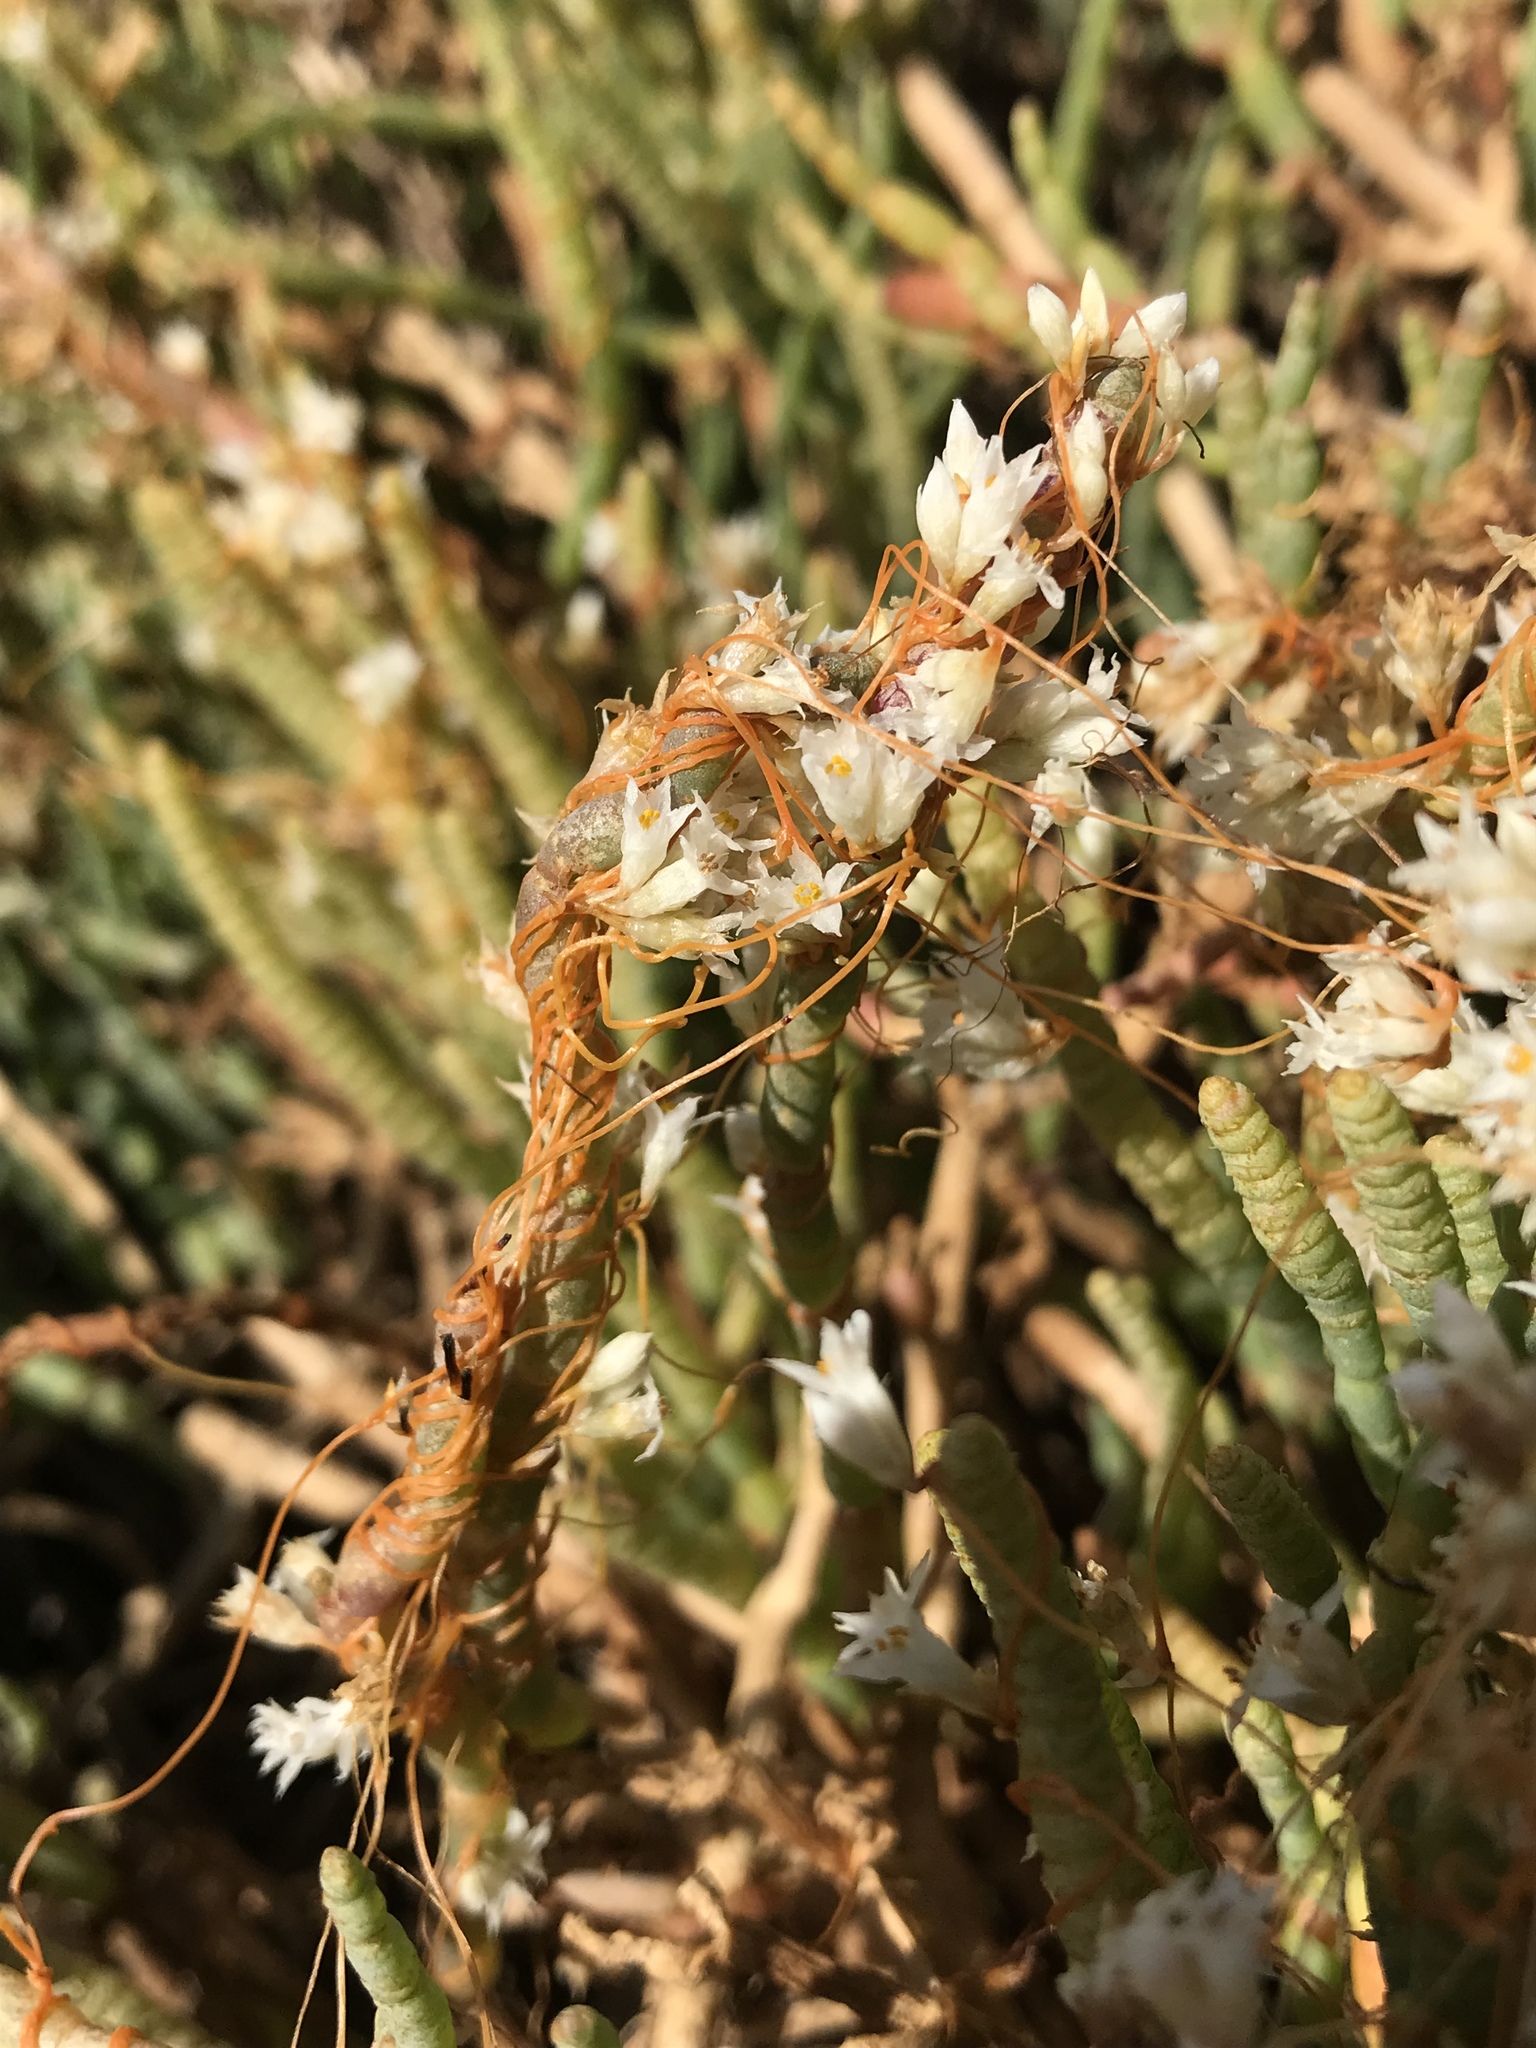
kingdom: Plantae
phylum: Tracheophyta
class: Magnoliopsida
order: Solanales
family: Convolvulaceae
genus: Cuscuta
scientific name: Cuscuta pacifica
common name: Large saltmarsh dodder
